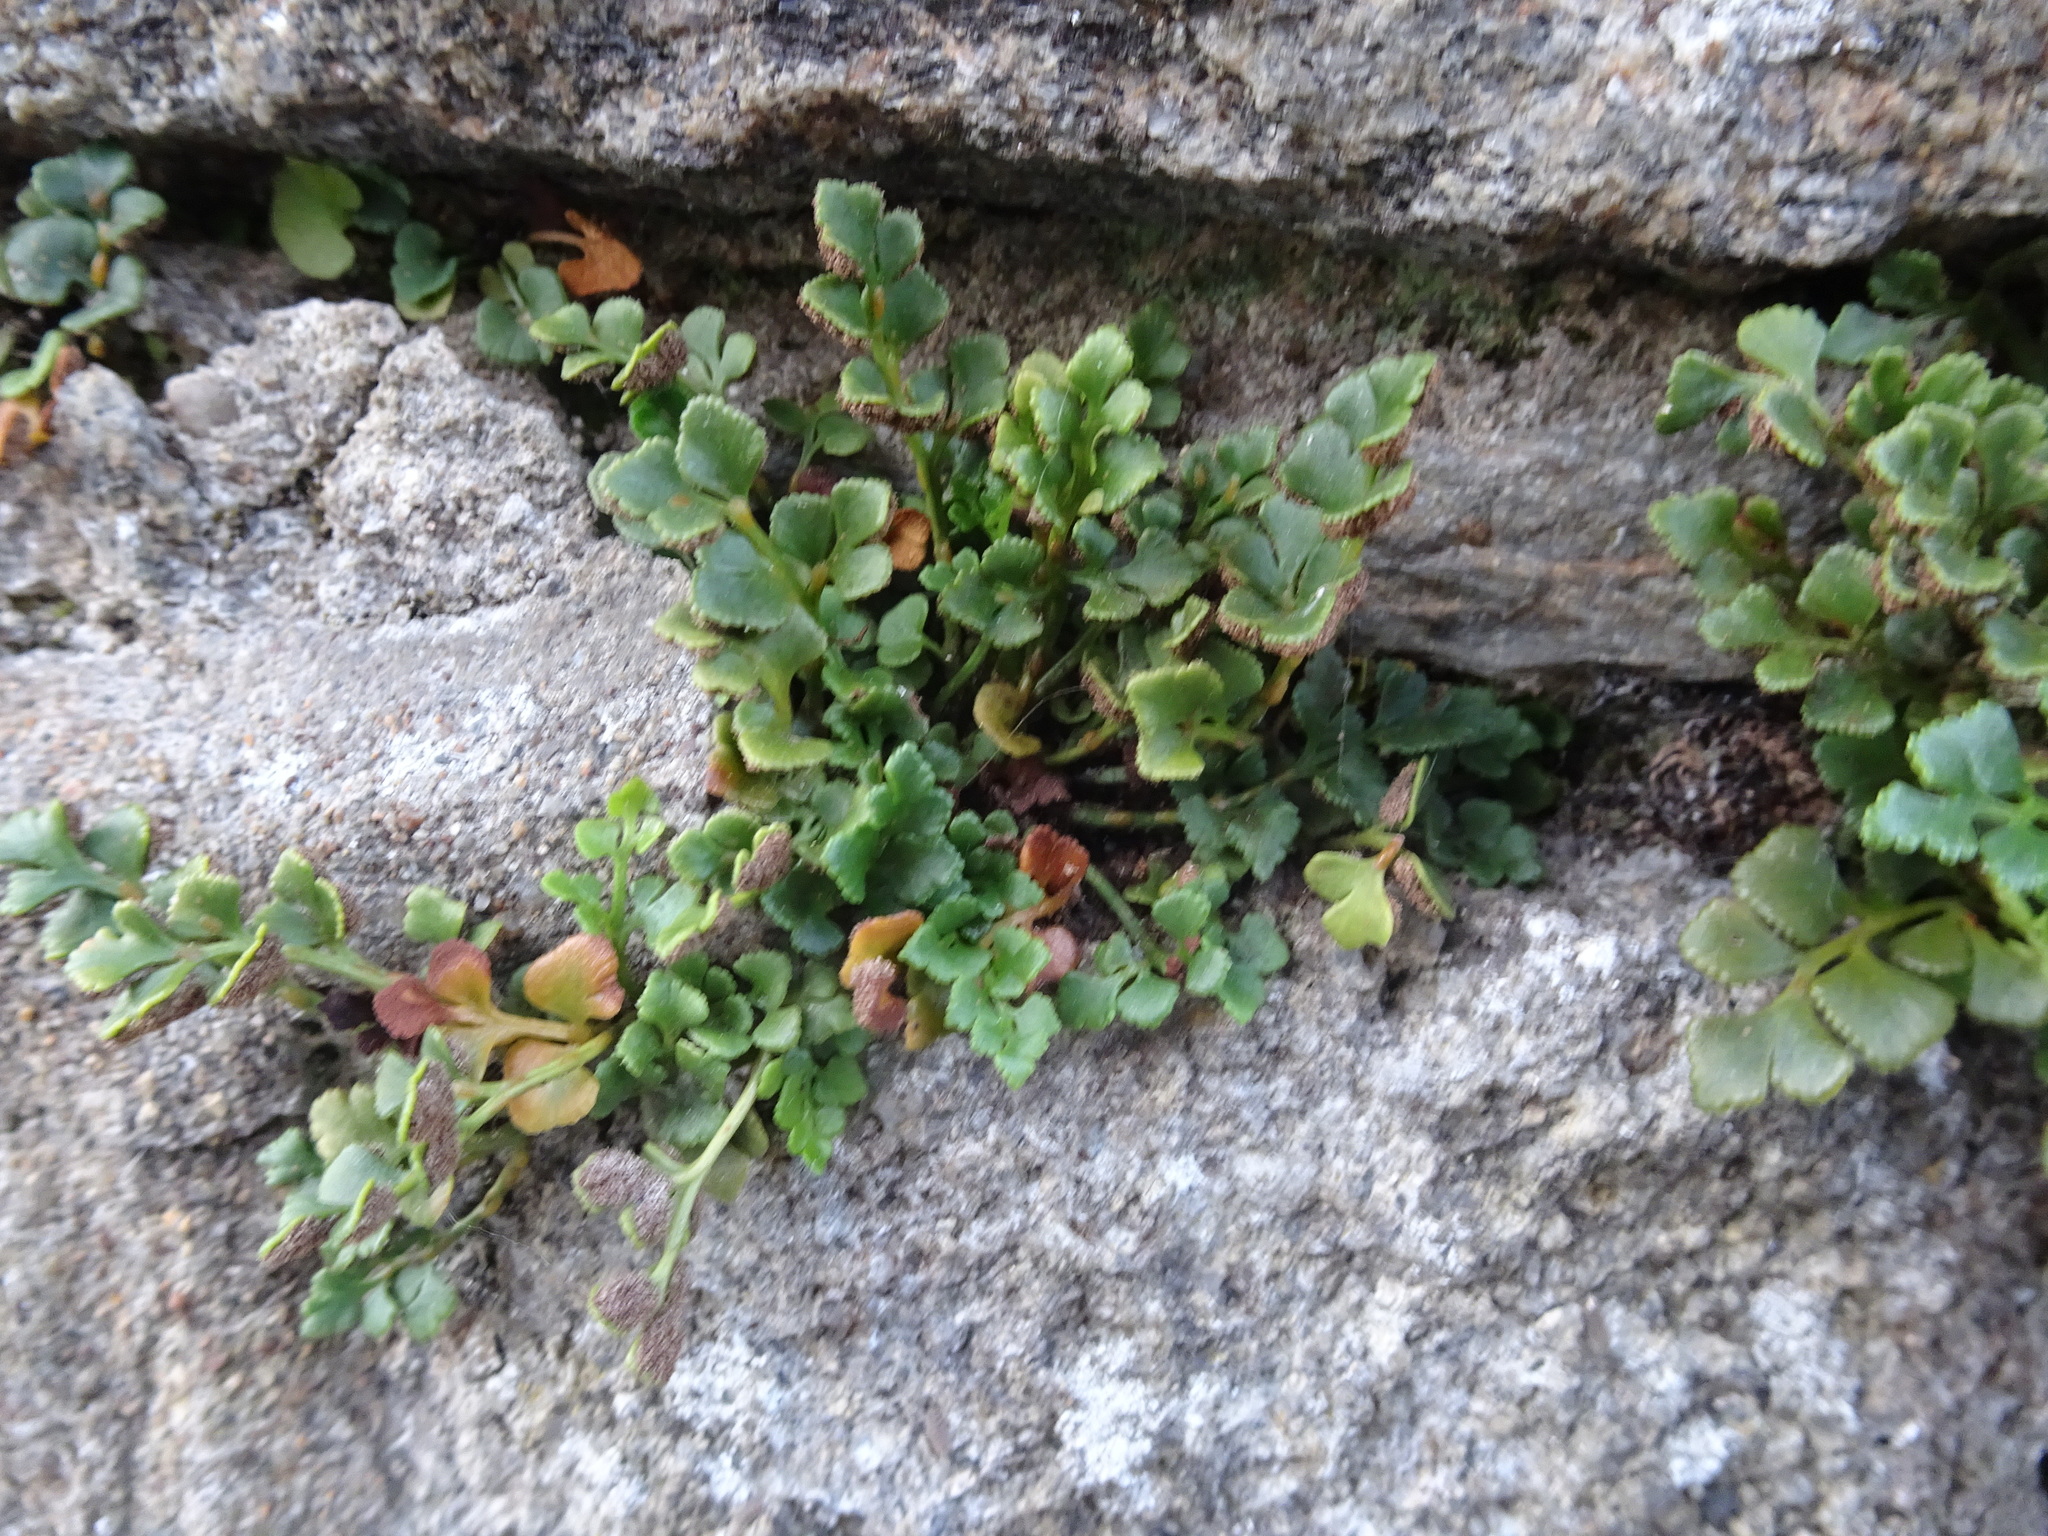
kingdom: Plantae
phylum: Tracheophyta
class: Polypodiopsida
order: Polypodiales
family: Aspleniaceae
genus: Asplenium
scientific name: Asplenium ruta-muraria
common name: Wall-rue
